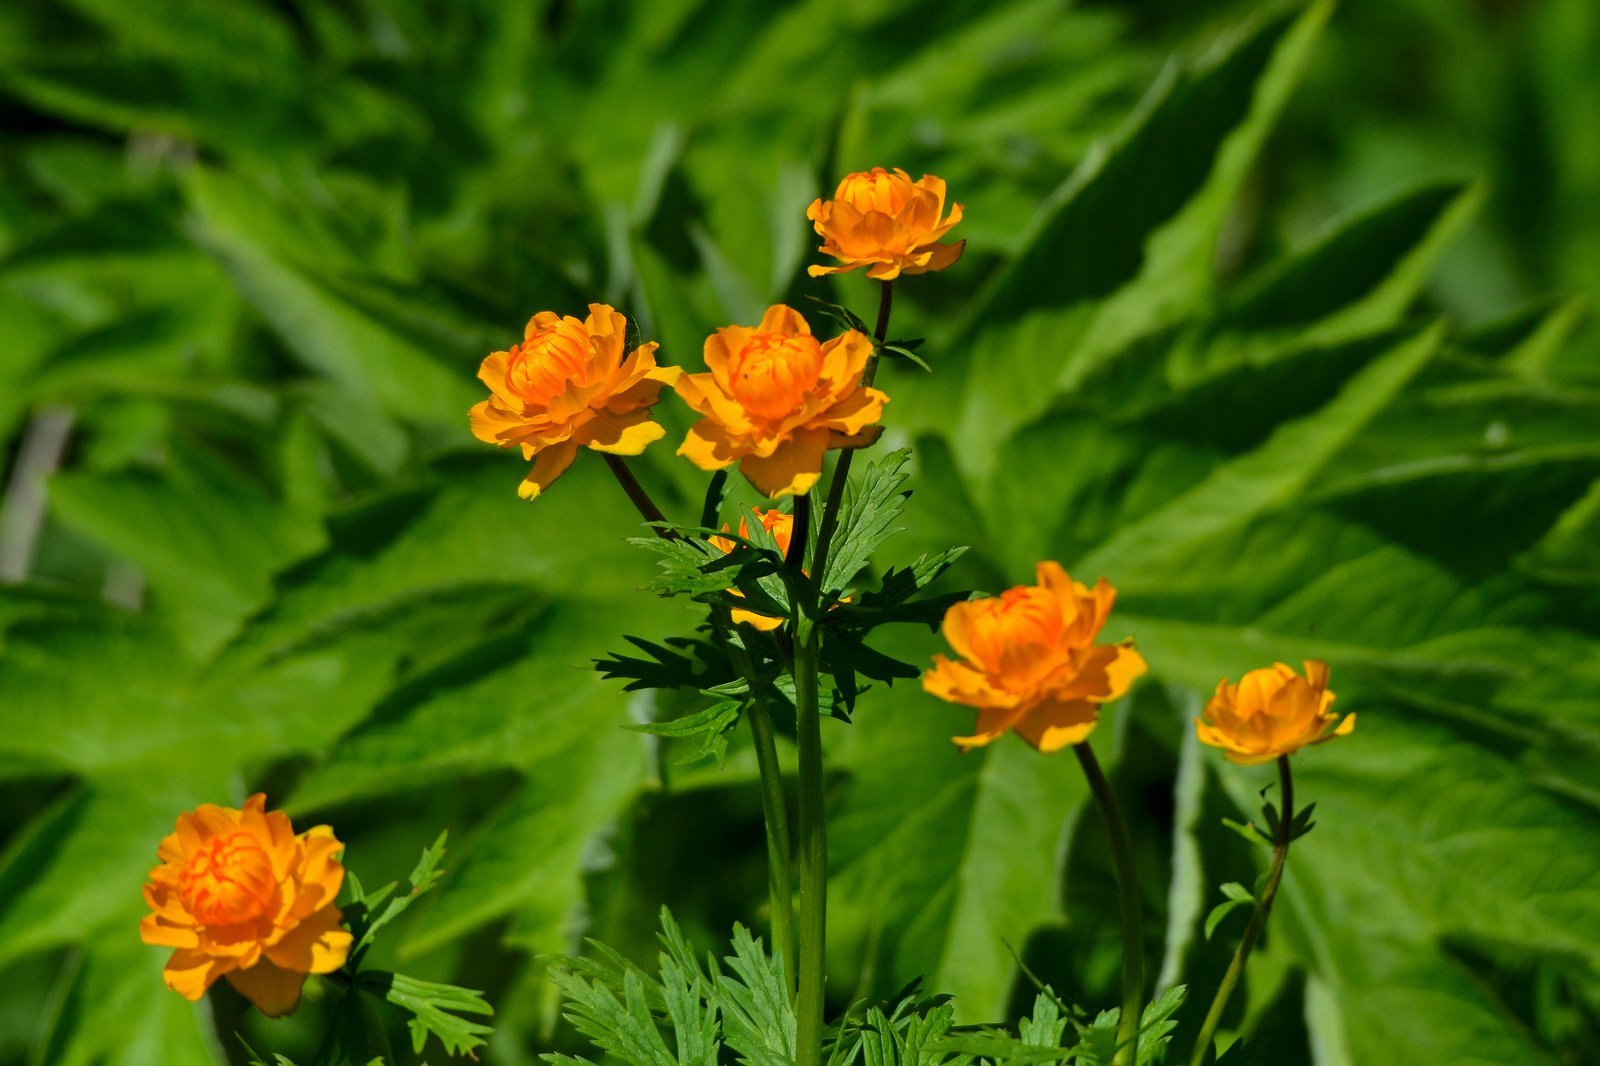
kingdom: Plantae
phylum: Tracheophyta
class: Magnoliopsida
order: Ranunculales
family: Ranunculaceae
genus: Trollius
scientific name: Trollius asiaticus
